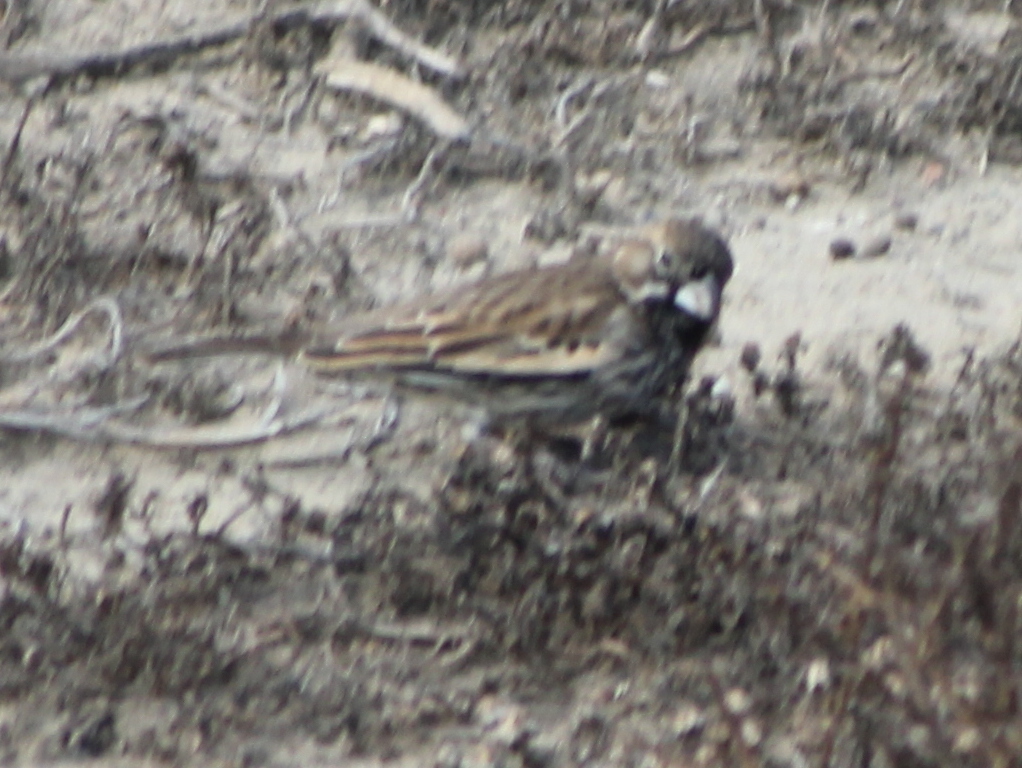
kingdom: Animalia
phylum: Chordata
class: Aves
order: Passeriformes
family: Passerellidae
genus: Calamospiza
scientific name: Calamospiza melanocorys
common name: Lark bunting
